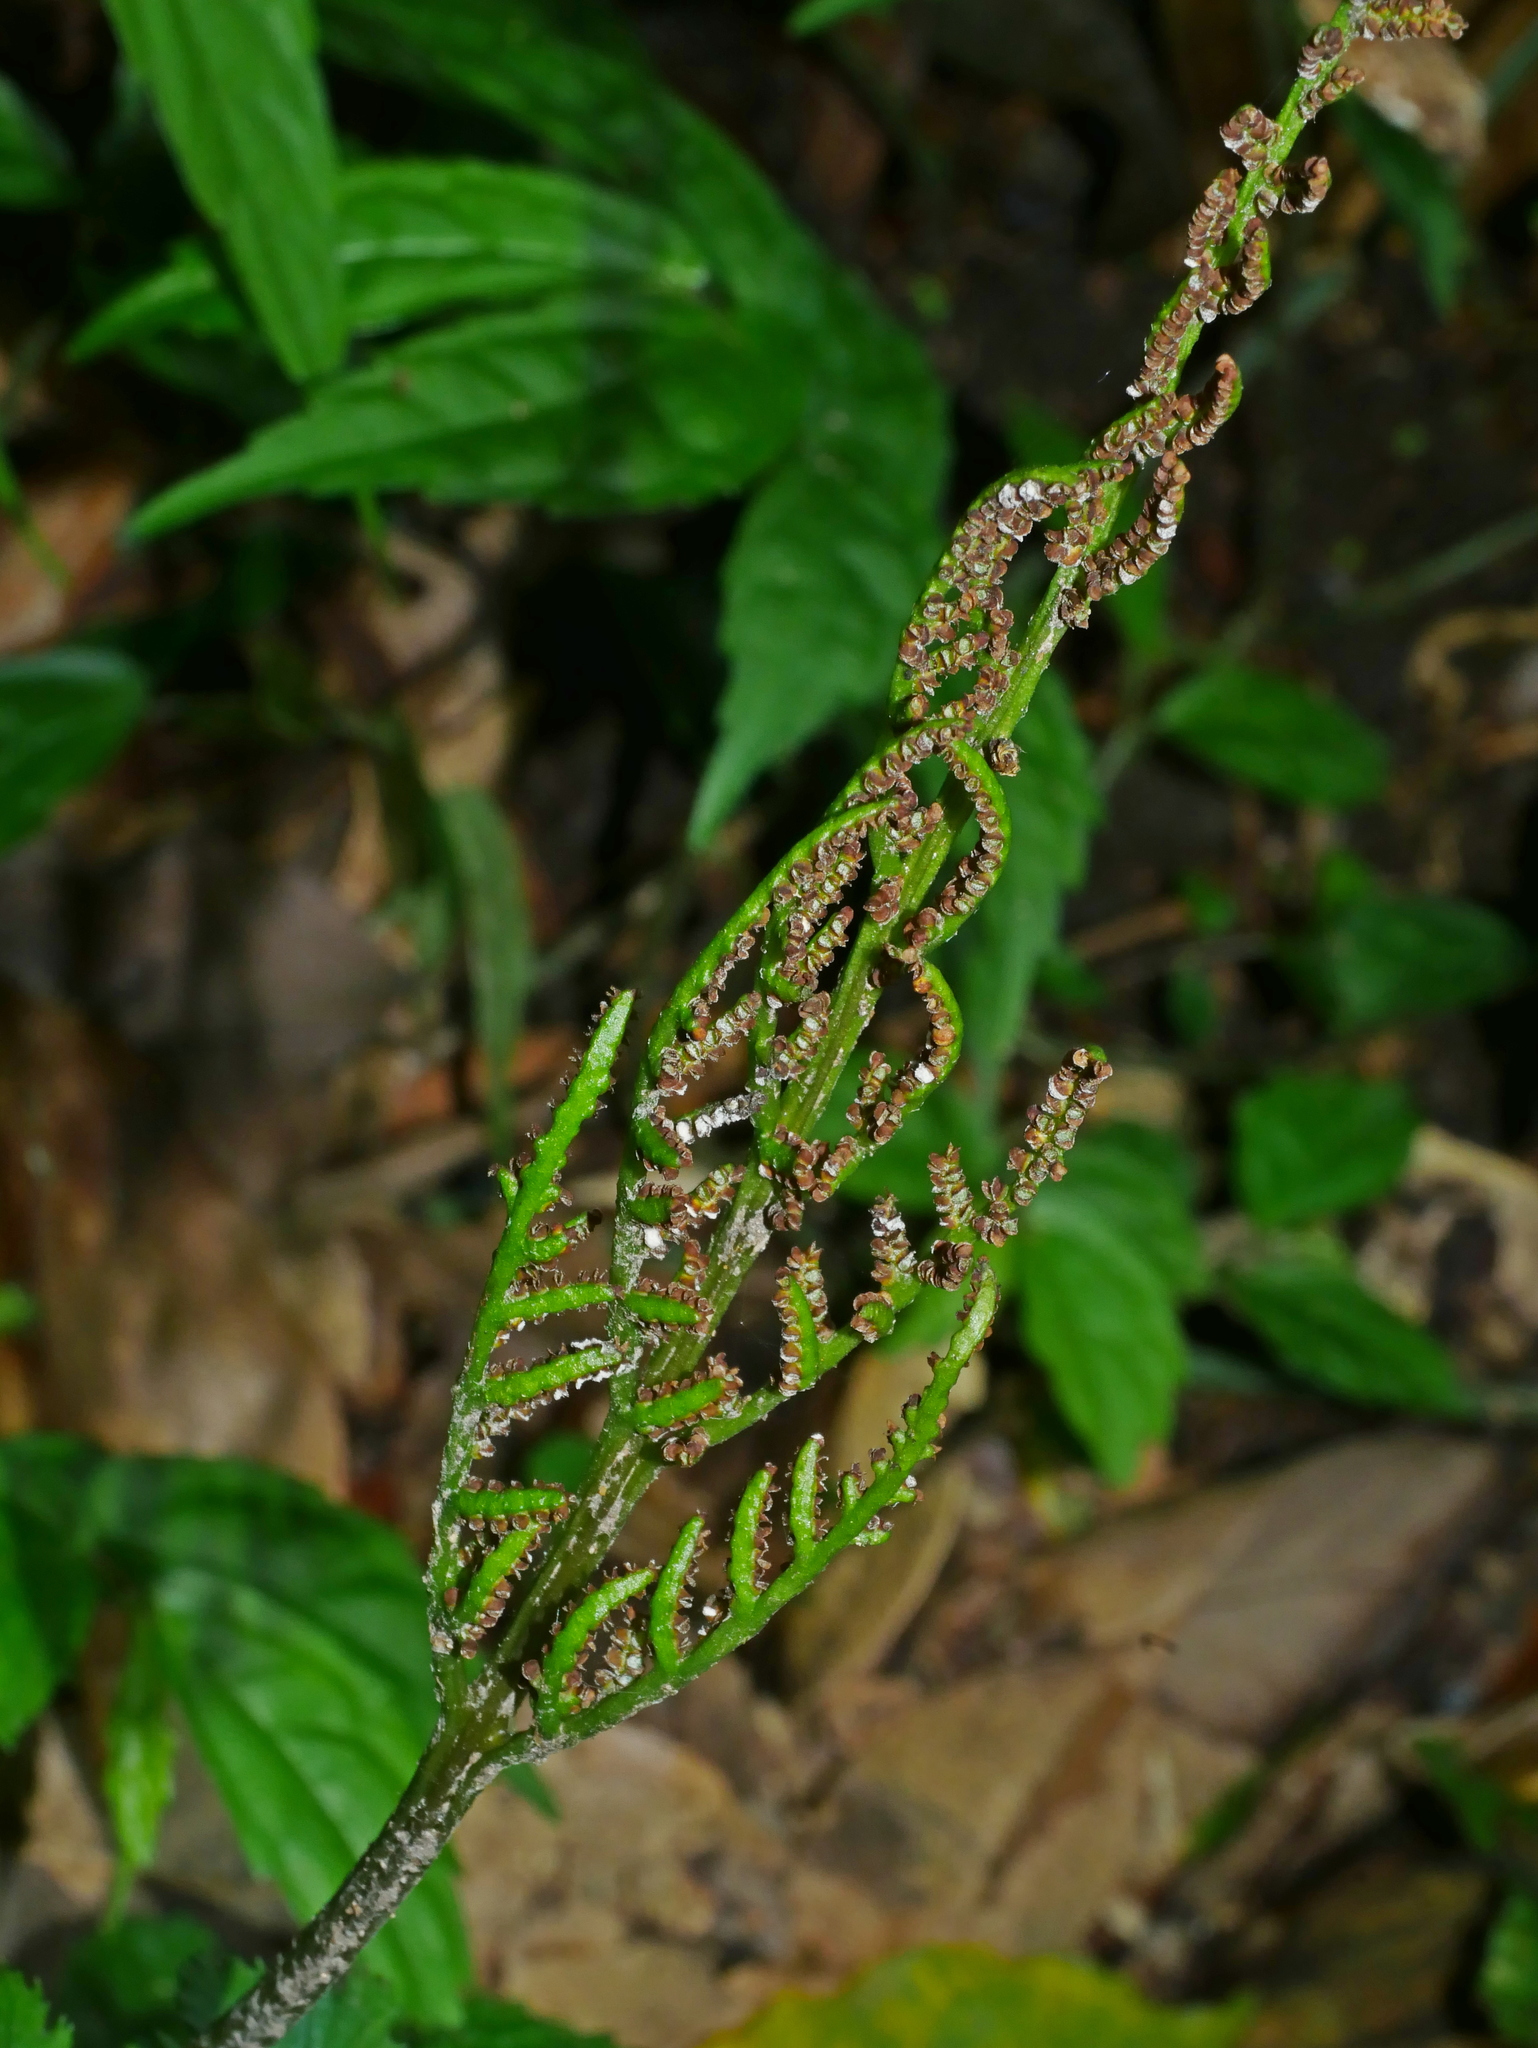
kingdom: Plantae
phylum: Tracheophyta
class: Polypodiopsida
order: Ophioglossales
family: Ophioglossaceae
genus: Sceptridium
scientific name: Sceptridium formosanum
